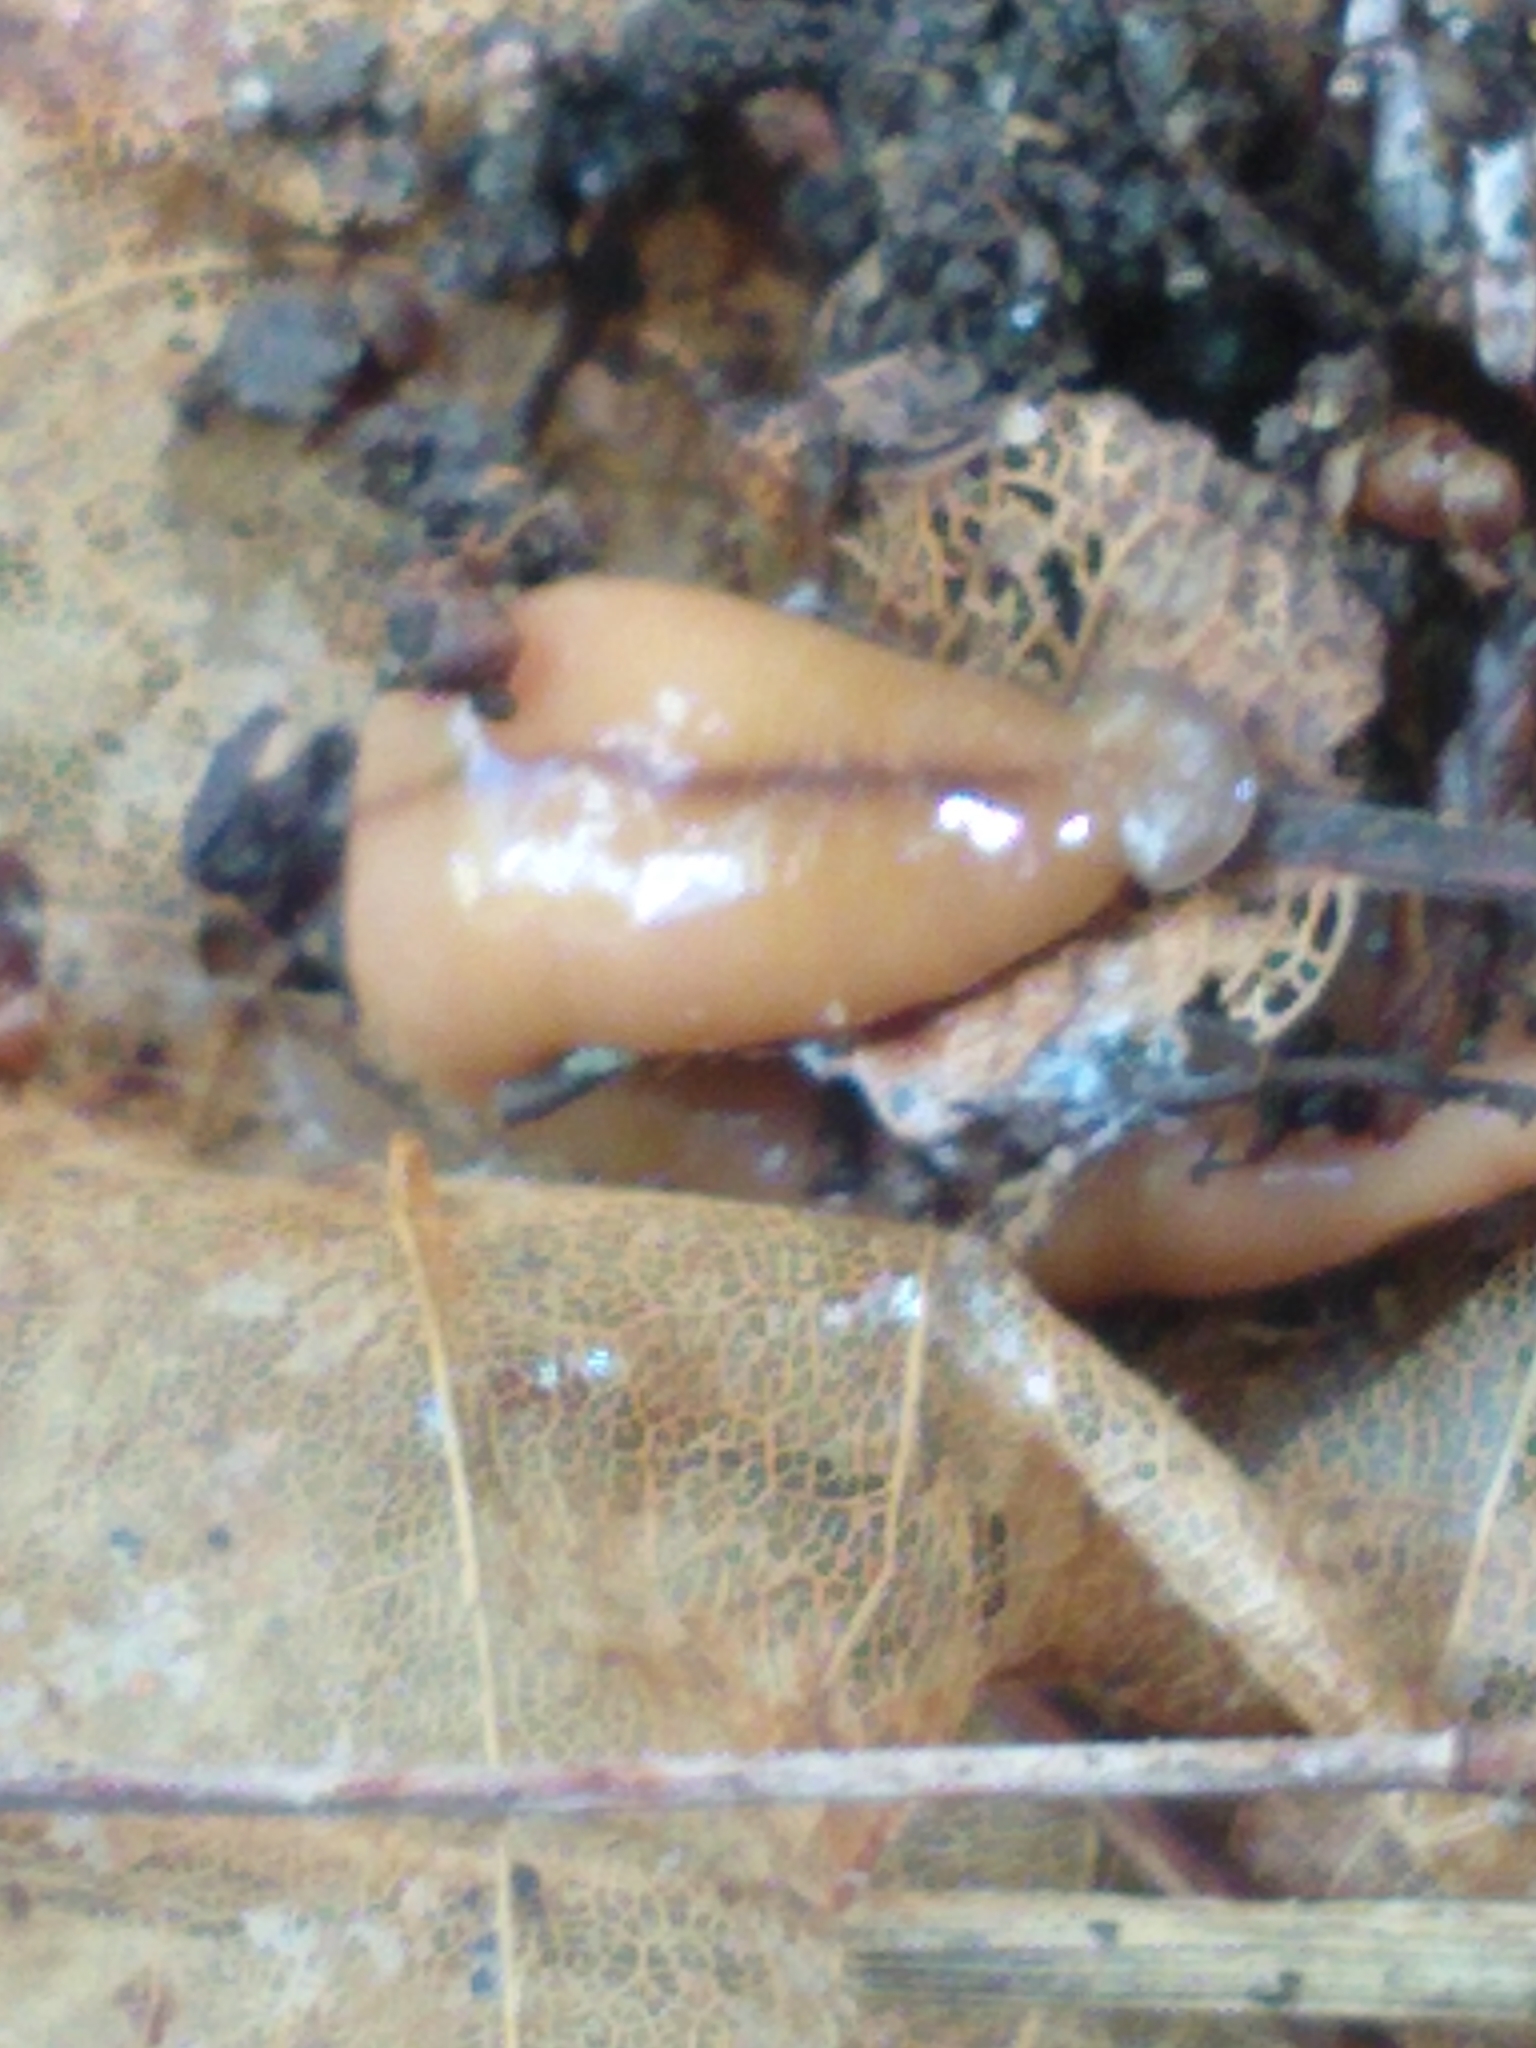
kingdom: Animalia
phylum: Platyhelminthes
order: Tricladida
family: Geoplanidae
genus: Bipalium
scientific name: Bipalium adventitium
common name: Land planarian
